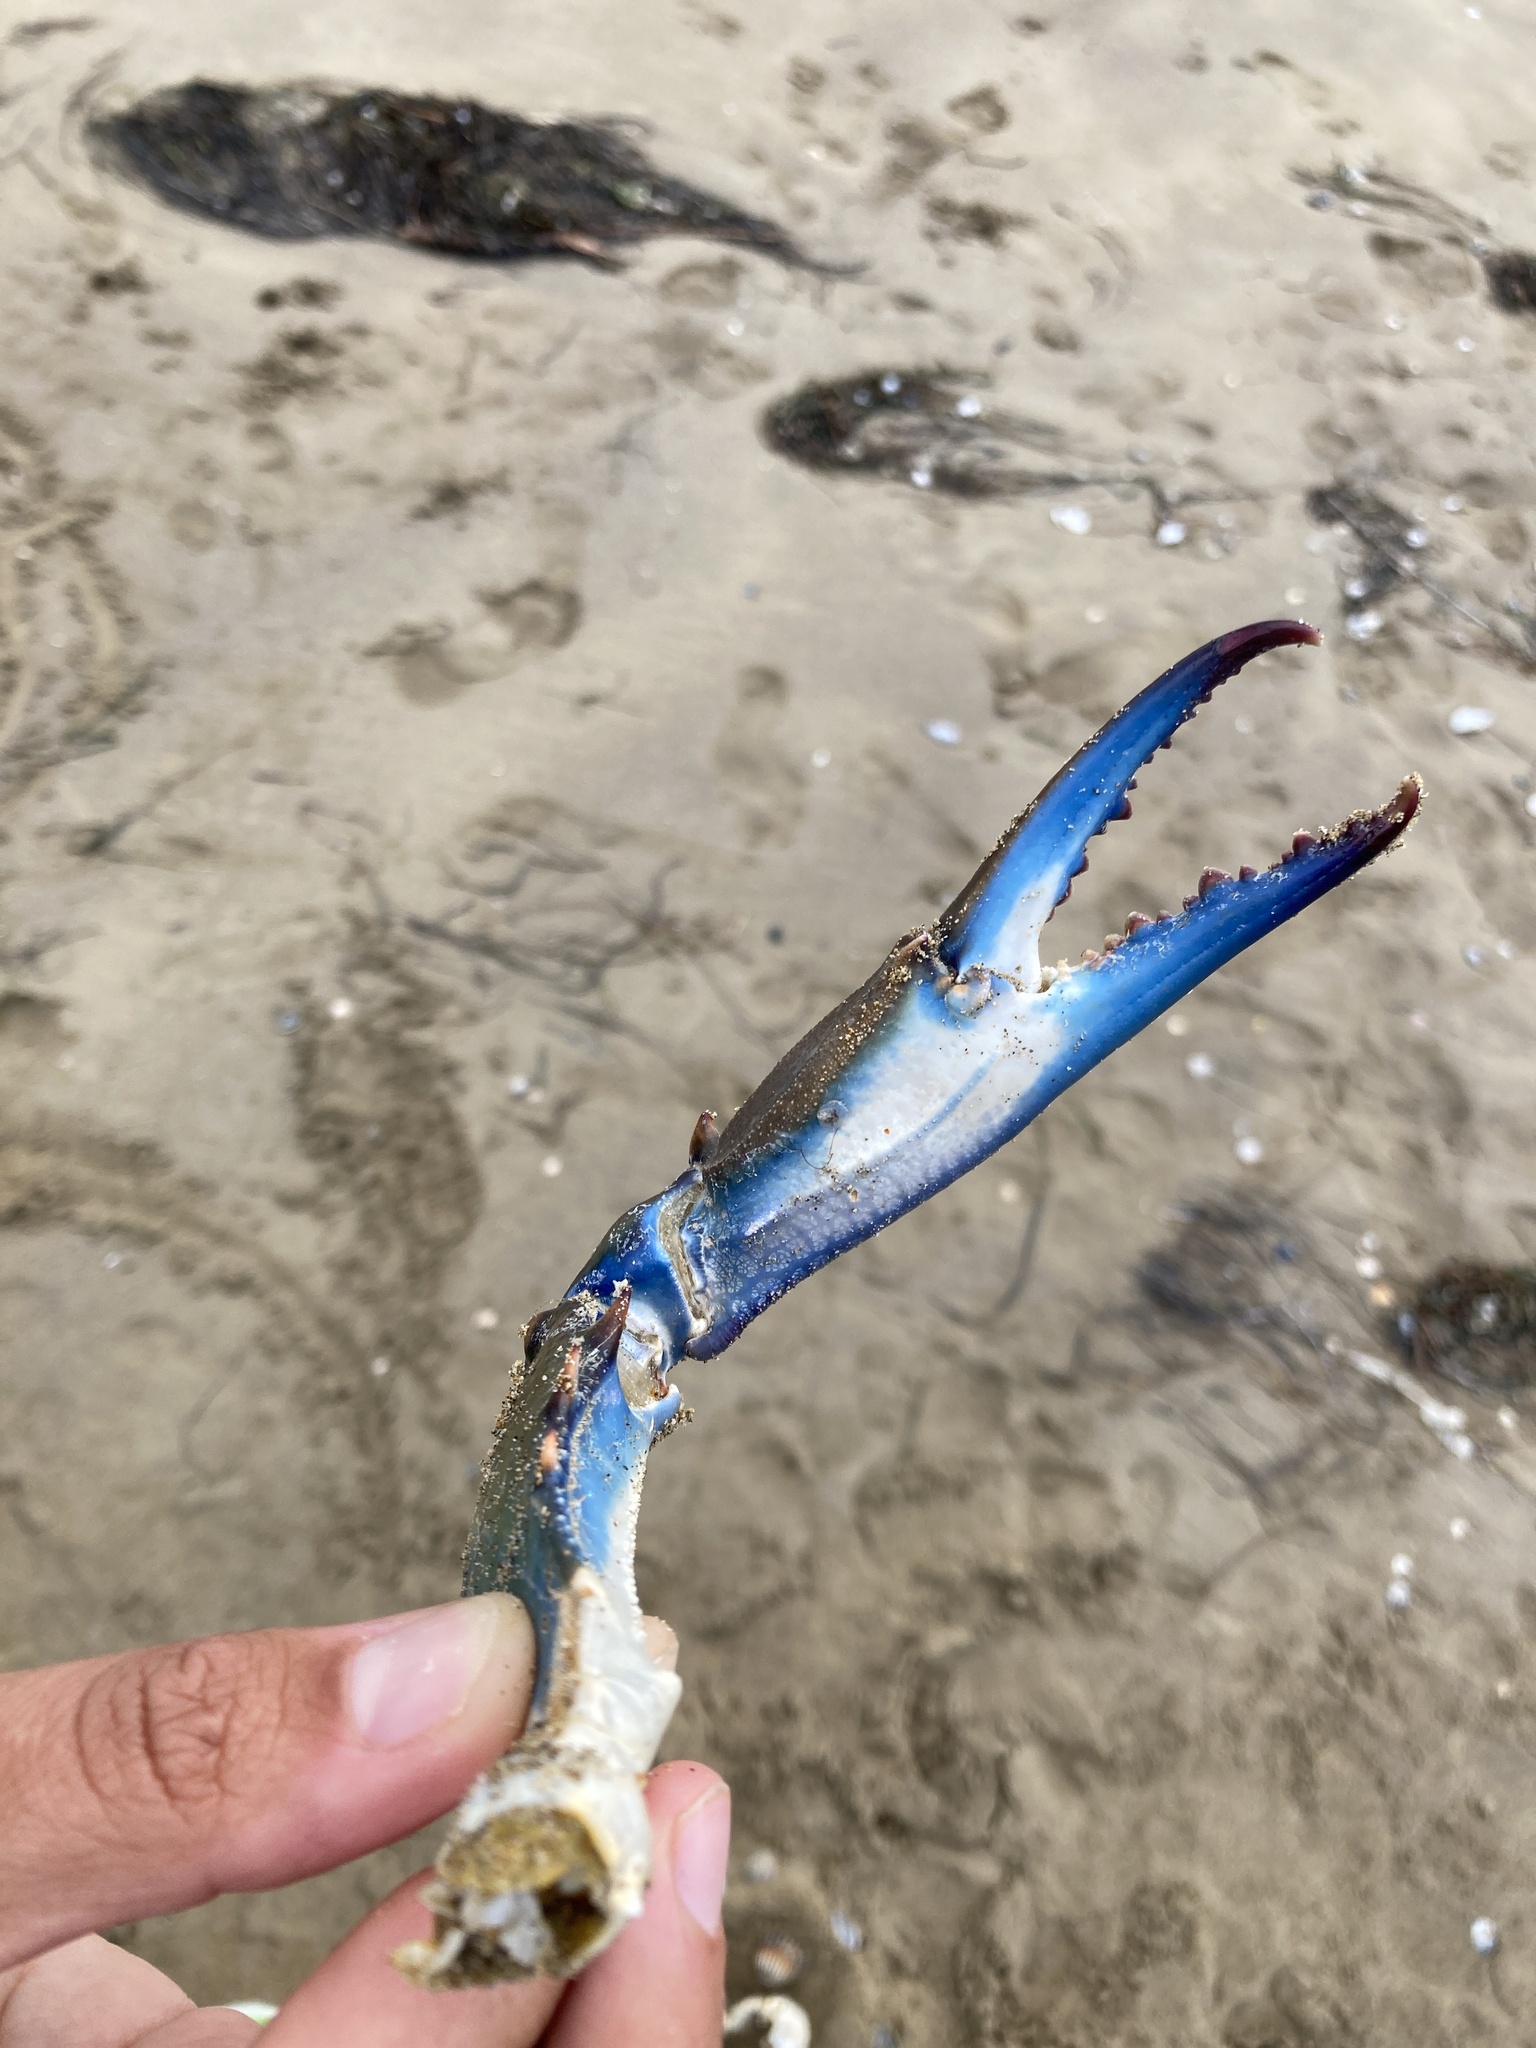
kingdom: Animalia
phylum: Arthropoda
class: Malacostraca
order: Decapoda
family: Portunidae
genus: Callinectes
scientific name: Callinectes sapidus
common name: Blue crab
